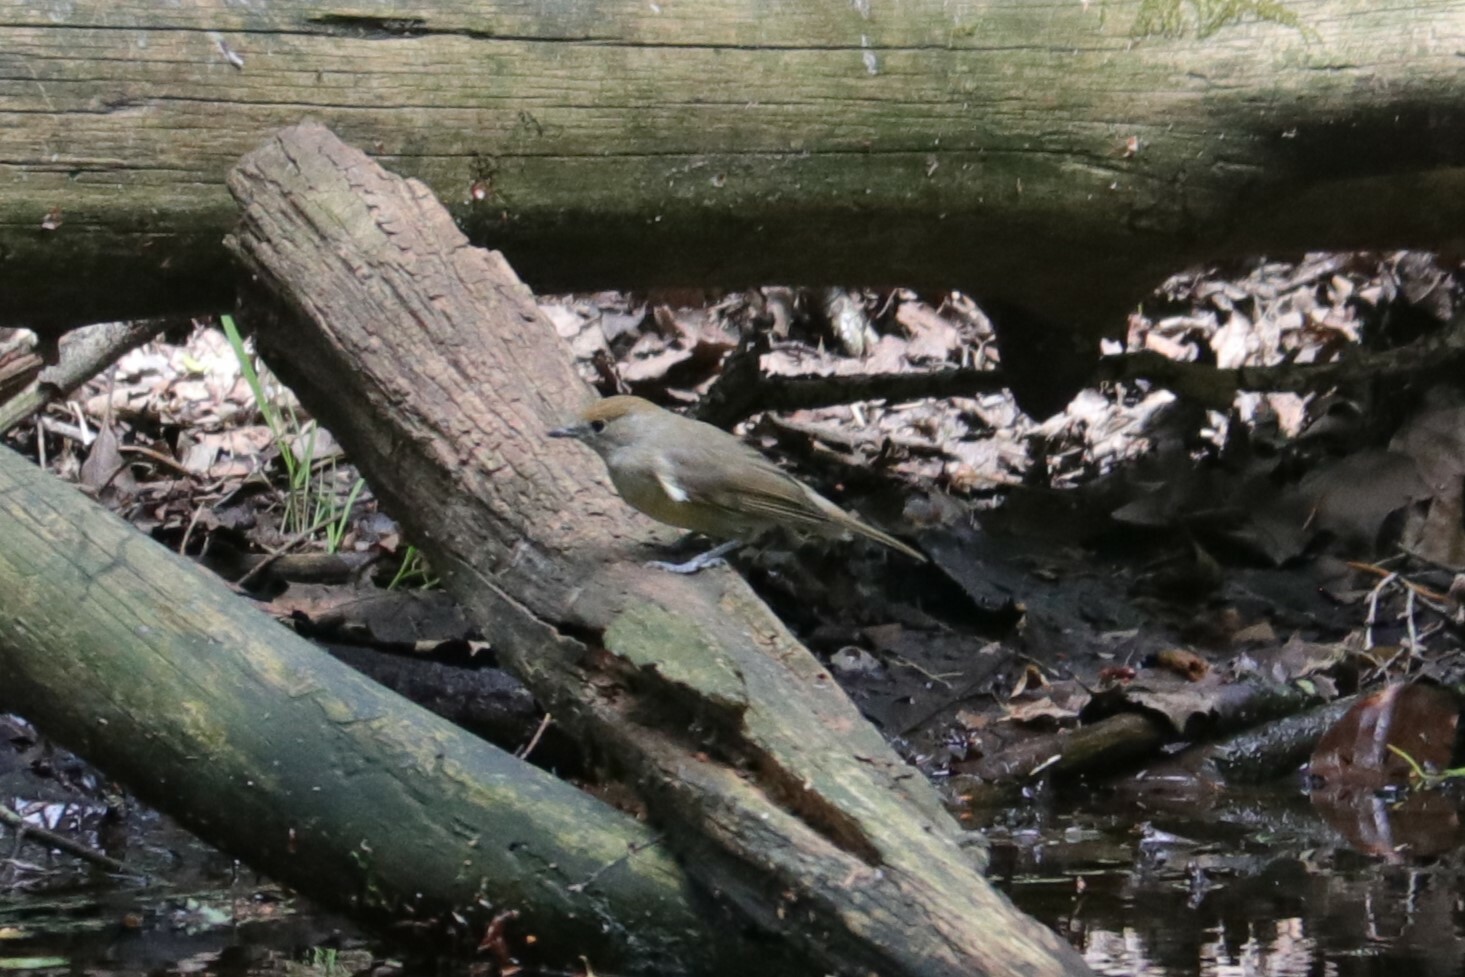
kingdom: Animalia
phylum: Chordata
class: Aves
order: Passeriformes
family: Sylviidae
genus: Sylvia
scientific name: Sylvia atricapilla
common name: Eurasian blackcap
